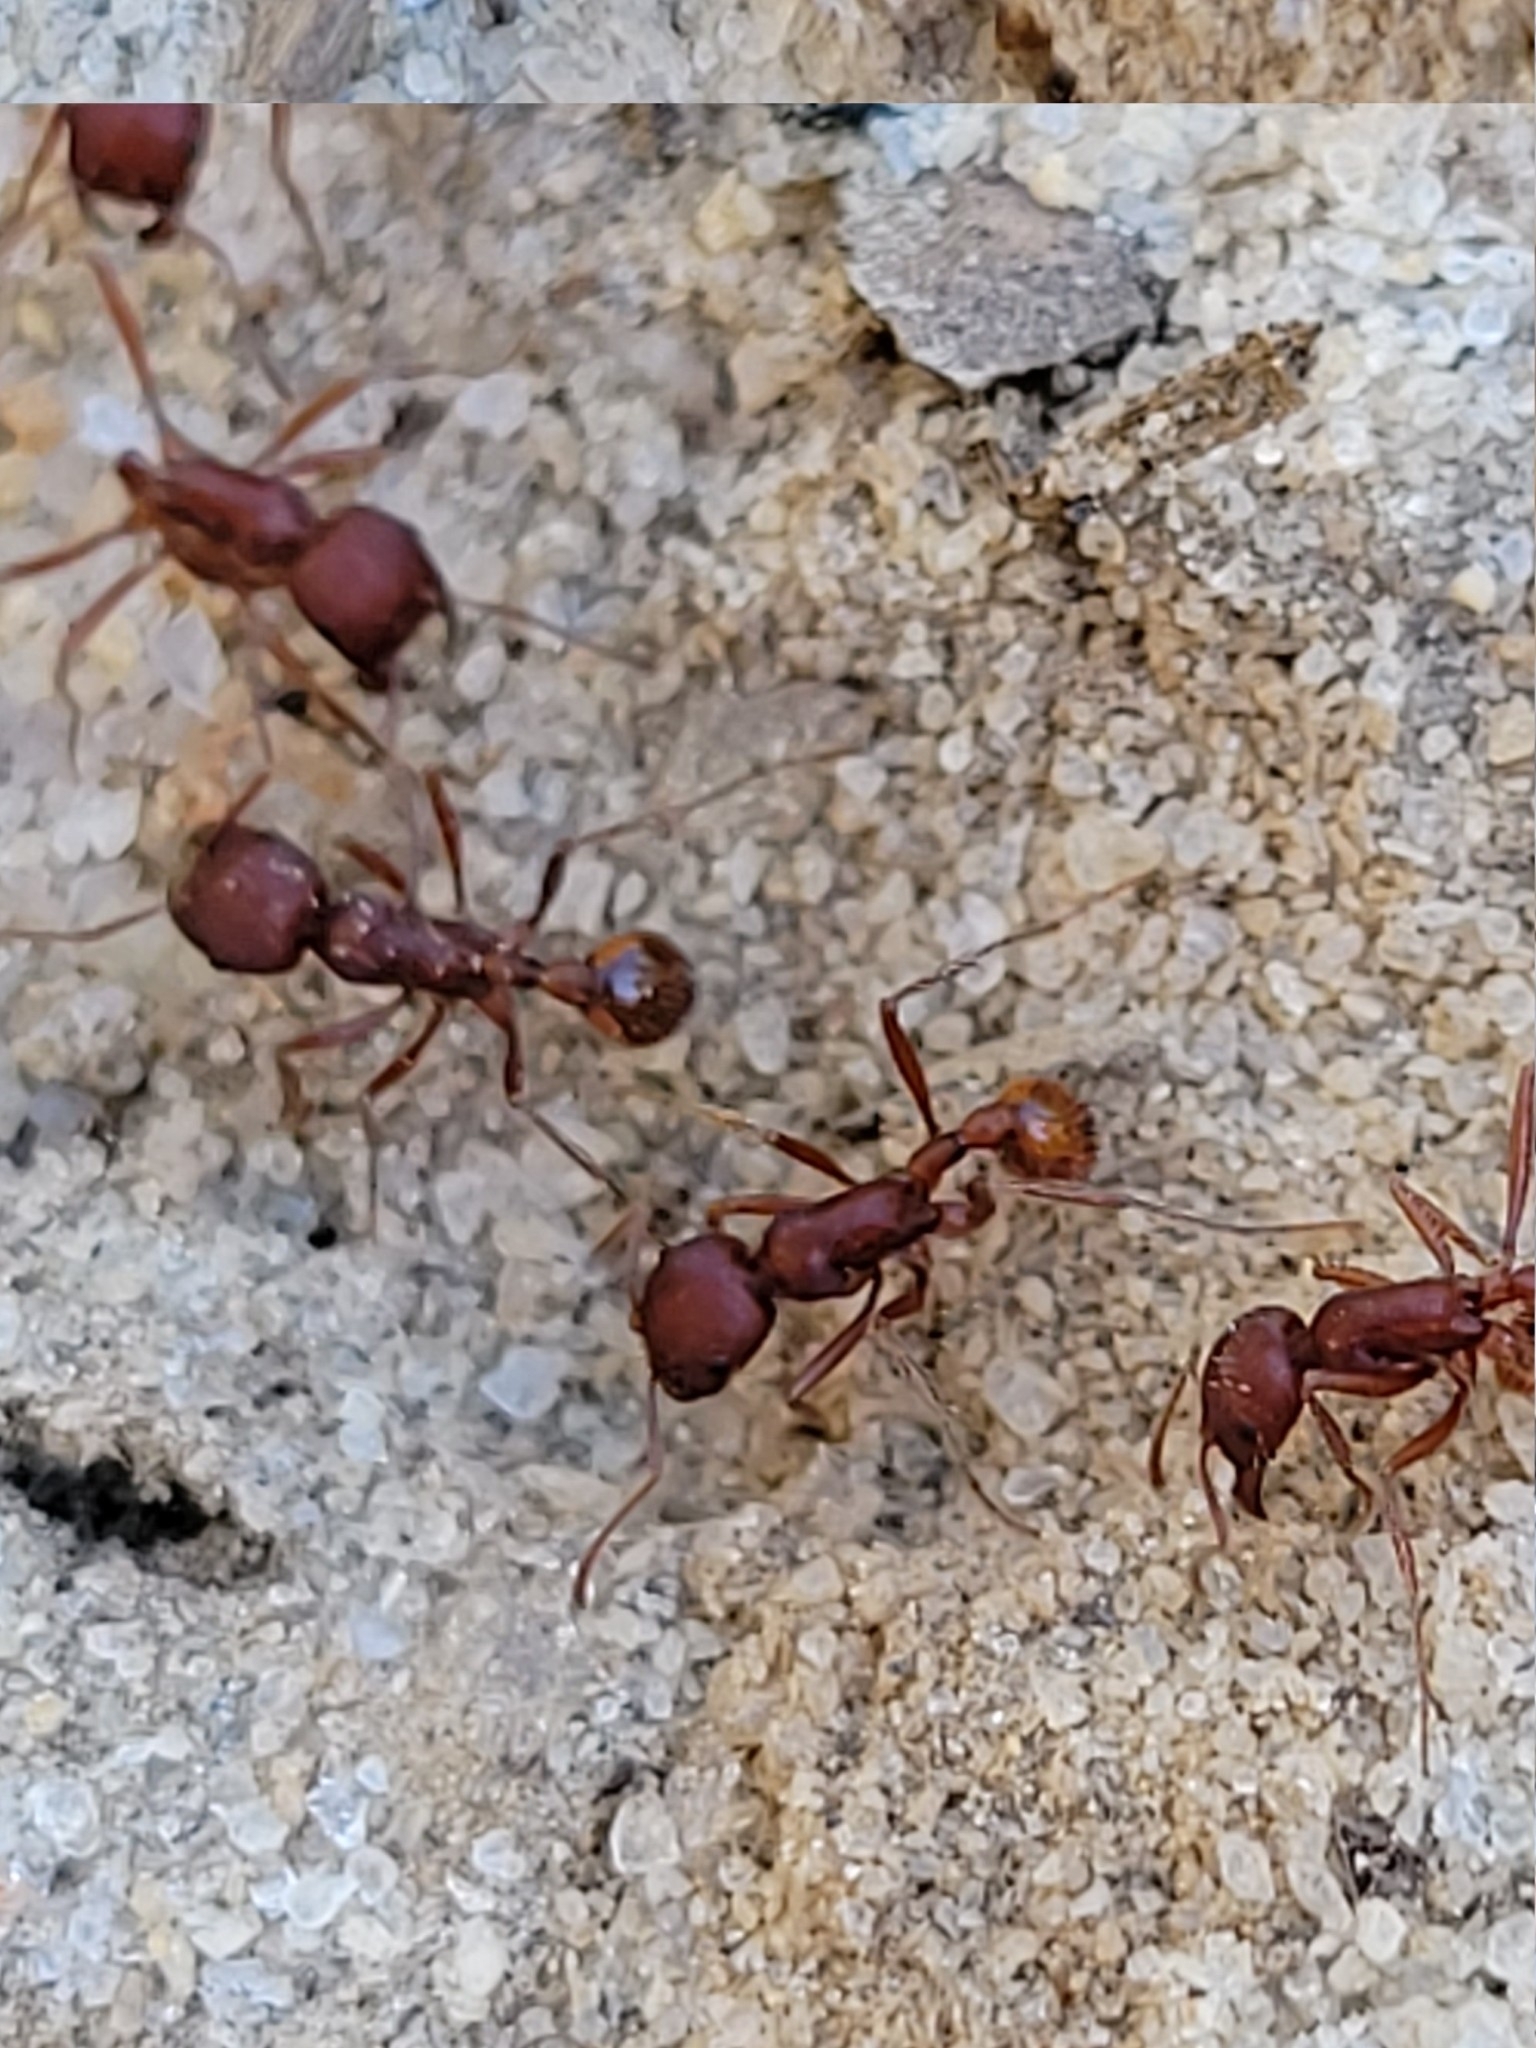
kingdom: Animalia
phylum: Arthropoda
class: Insecta
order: Hymenoptera
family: Formicidae
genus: Pogonomyrmex
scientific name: Pogonomyrmex badius
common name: Florida harvester ant
